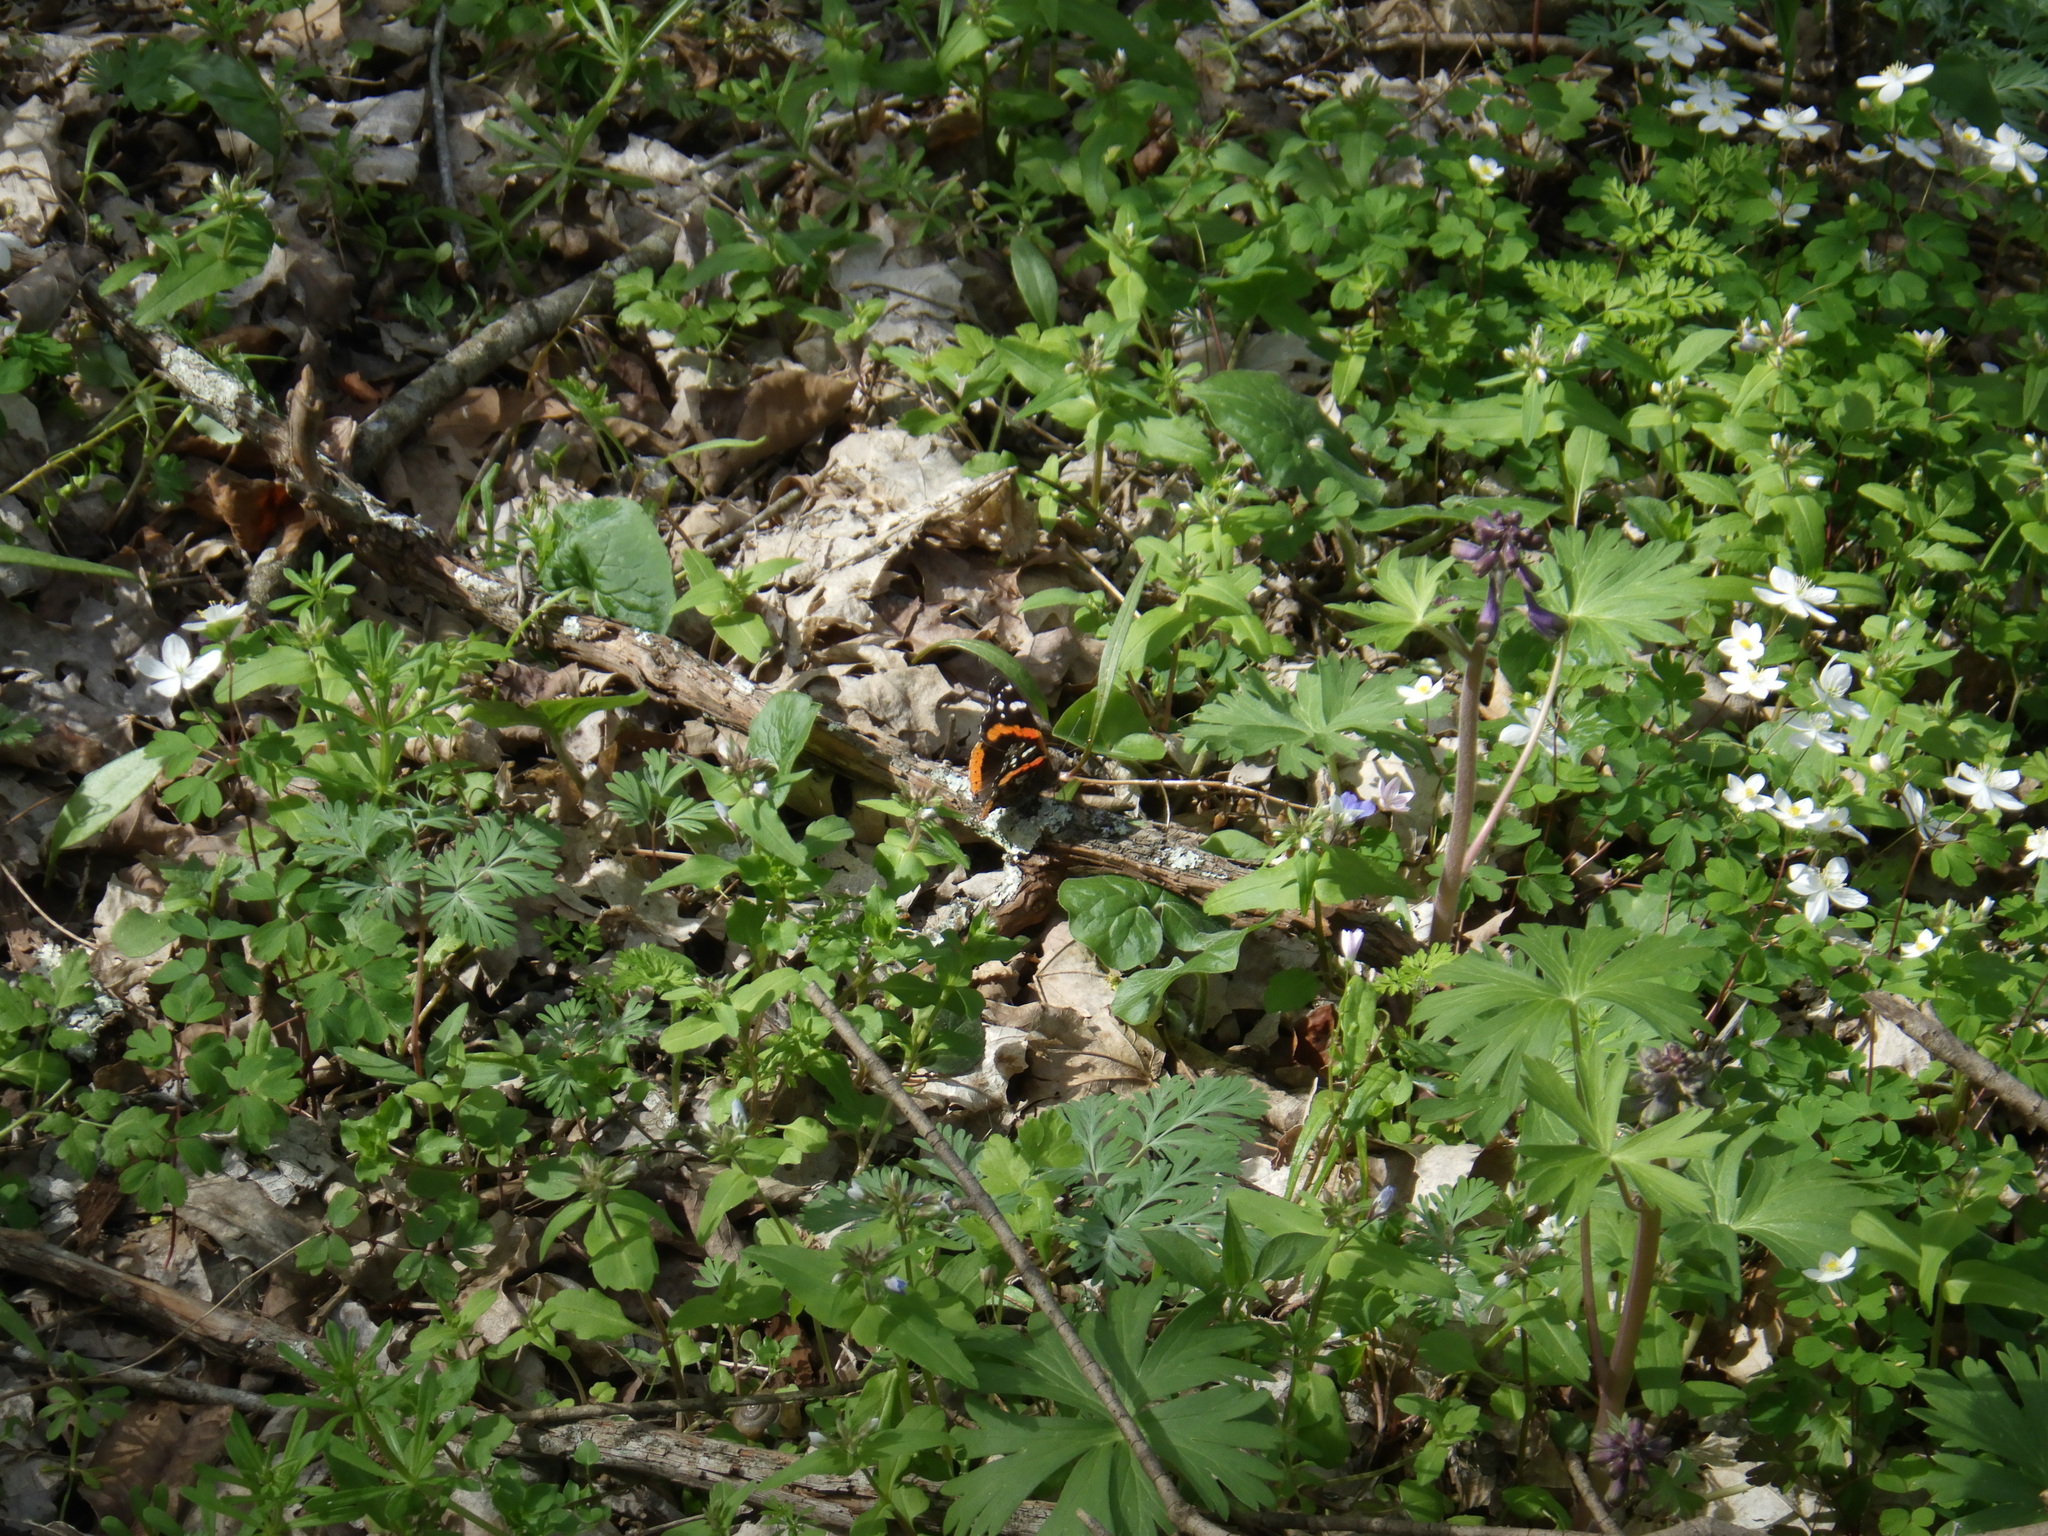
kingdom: Animalia
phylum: Arthropoda
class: Insecta
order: Lepidoptera
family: Nymphalidae
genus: Vanessa
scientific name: Vanessa atalanta
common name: Red admiral
